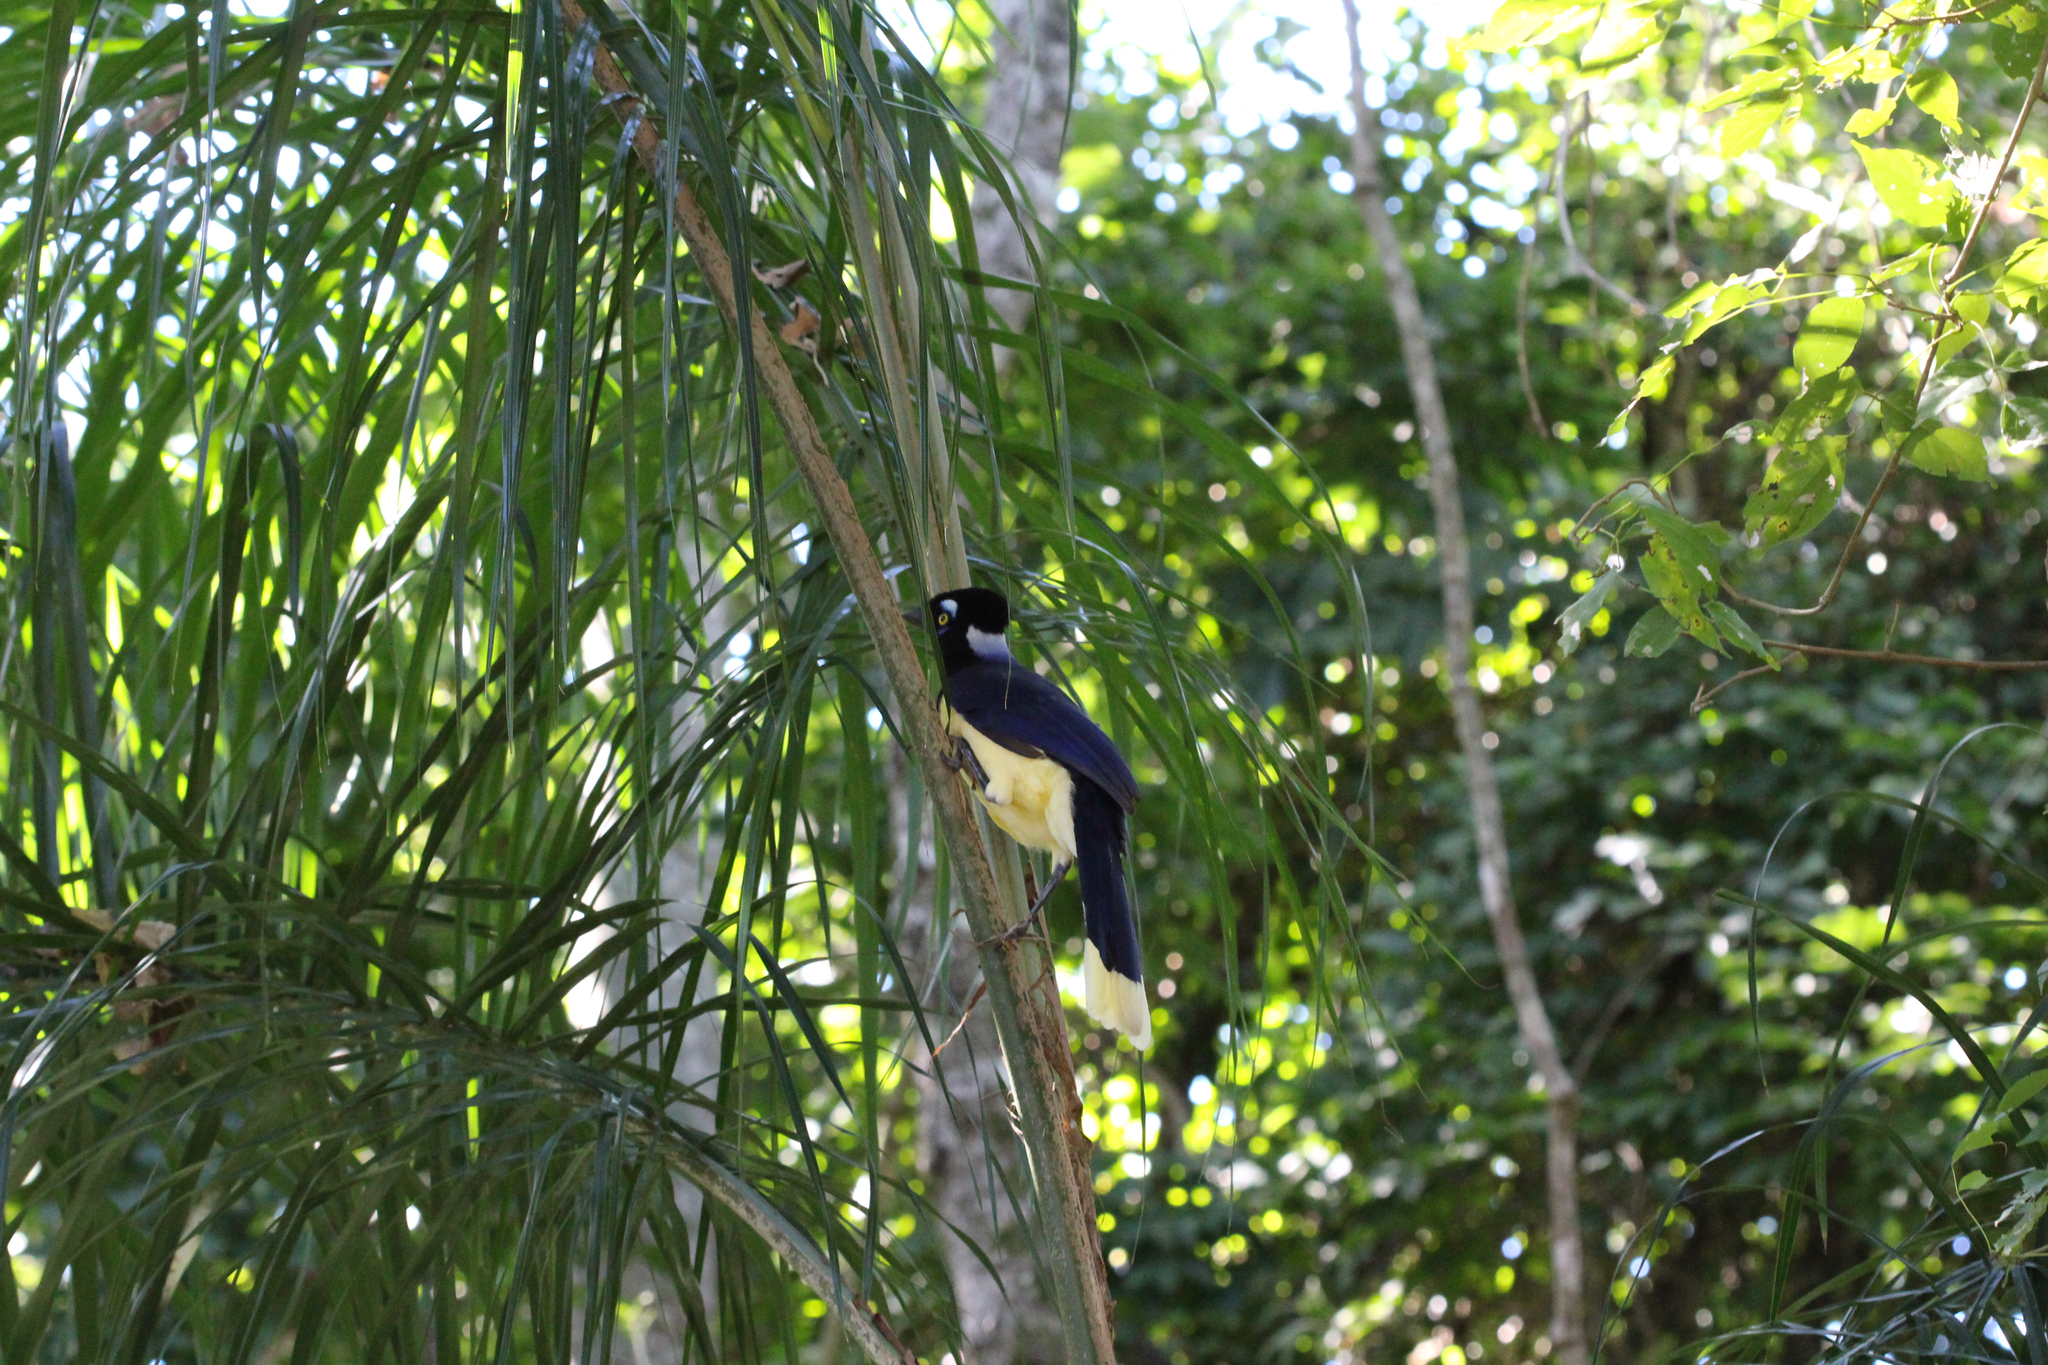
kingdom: Animalia
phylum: Chordata
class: Aves
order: Passeriformes
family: Corvidae
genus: Cyanocorax
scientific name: Cyanocorax chrysops
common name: Plush-crested jay
